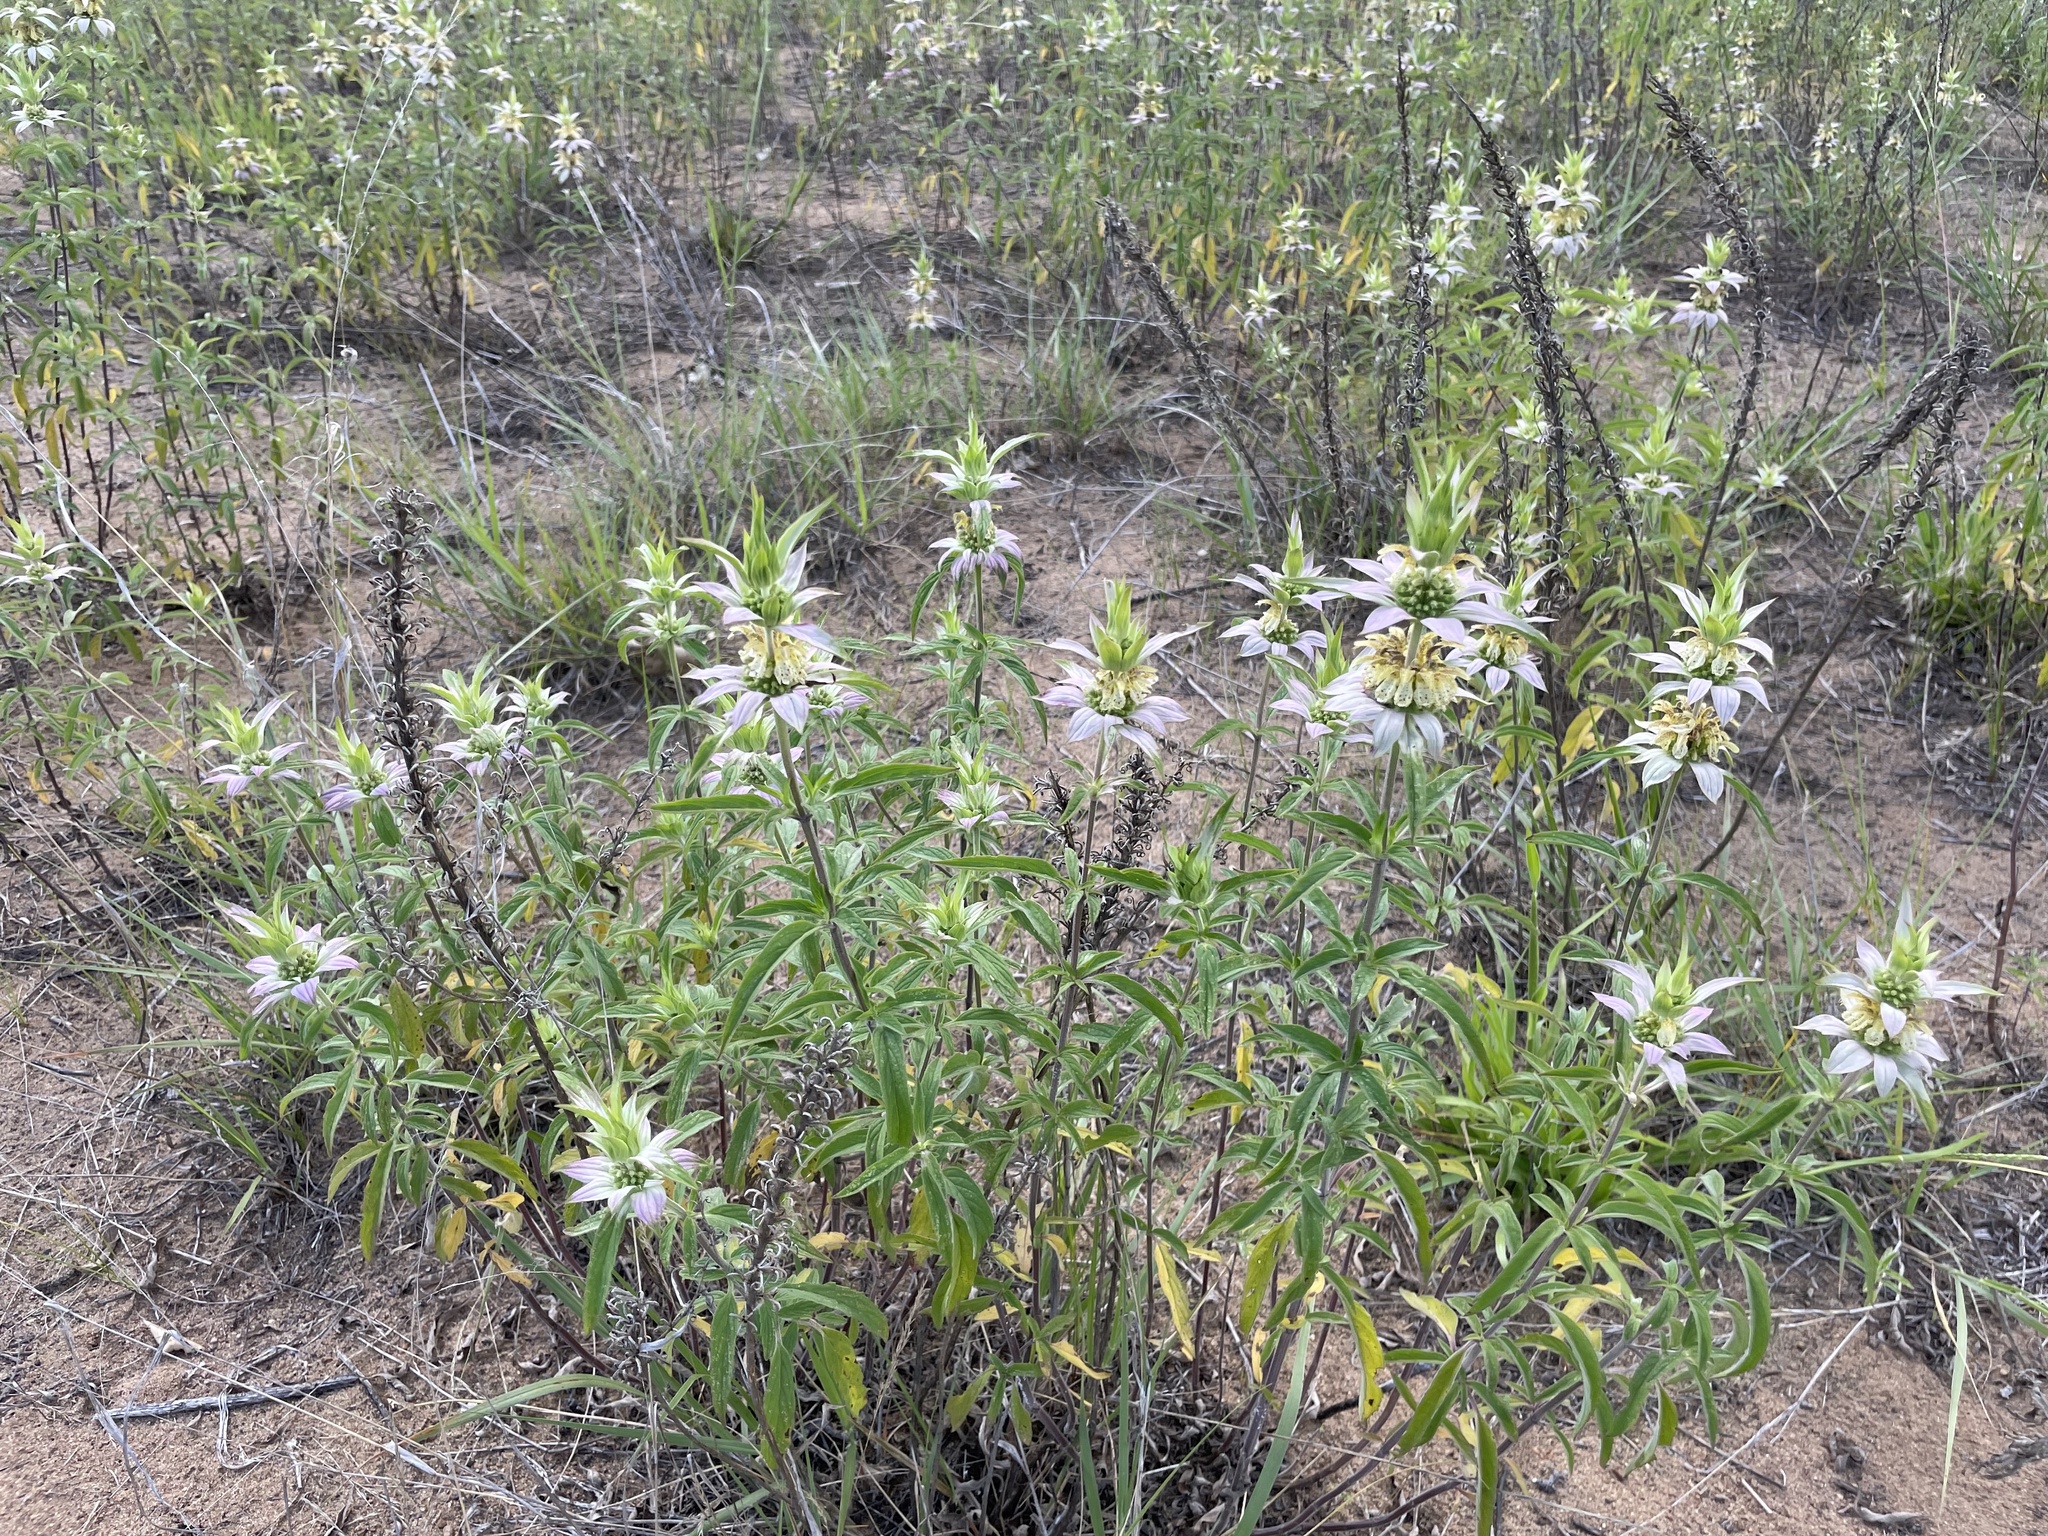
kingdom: Plantae
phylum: Tracheophyta
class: Magnoliopsida
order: Lamiales
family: Lamiaceae
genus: Monarda
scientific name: Monarda punctata
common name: Dotted monarda
